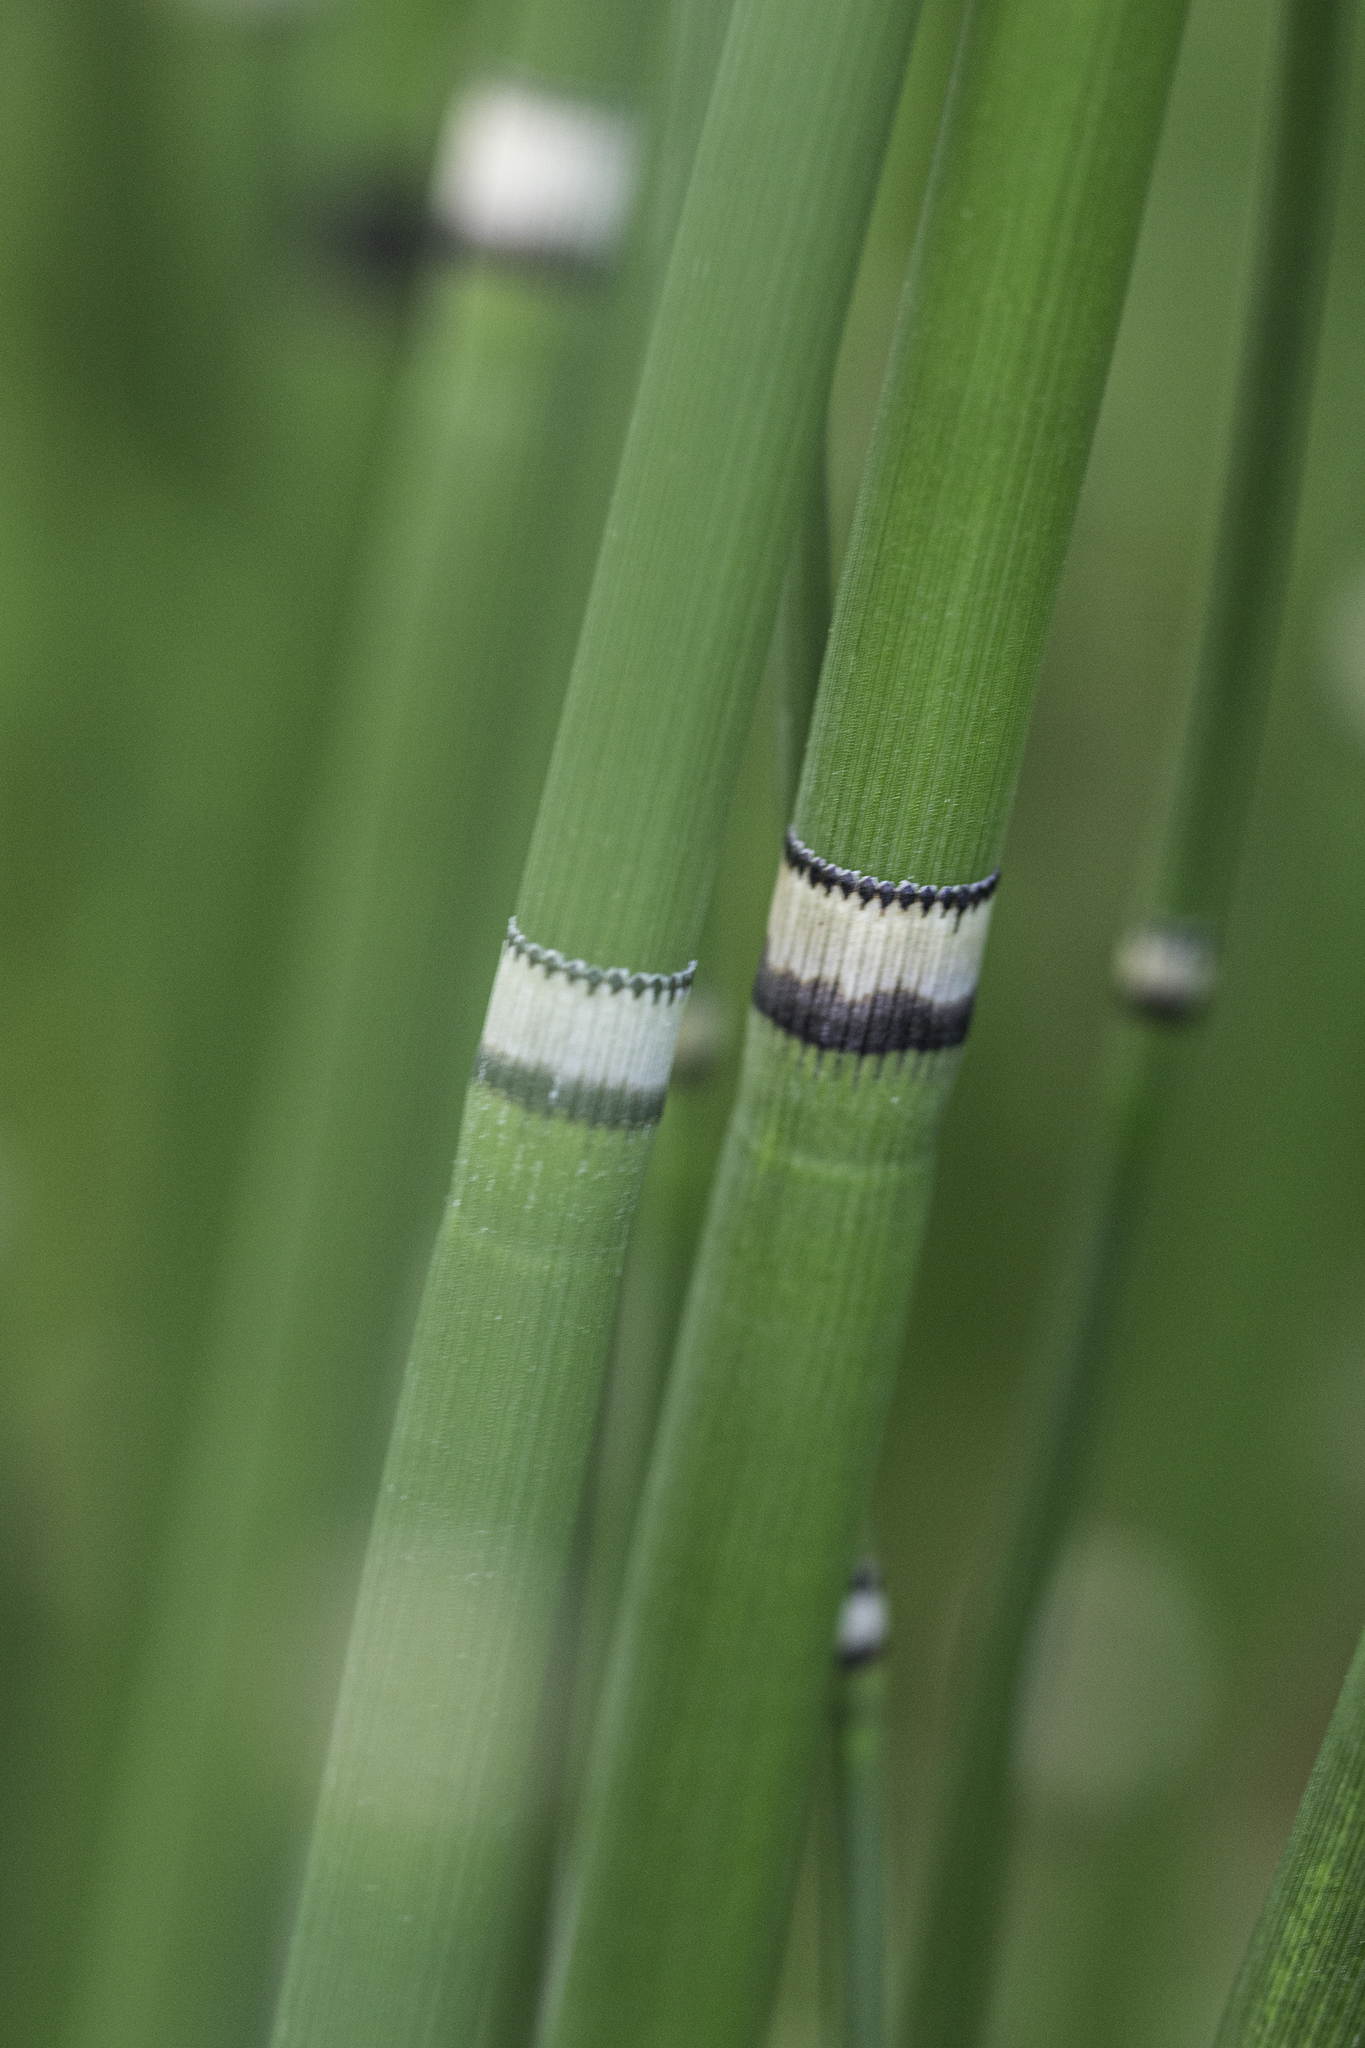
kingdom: Plantae
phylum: Tracheophyta
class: Polypodiopsida
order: Equisetales
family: Equisetaceae
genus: Equisetum
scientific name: Equisetum praealtum
